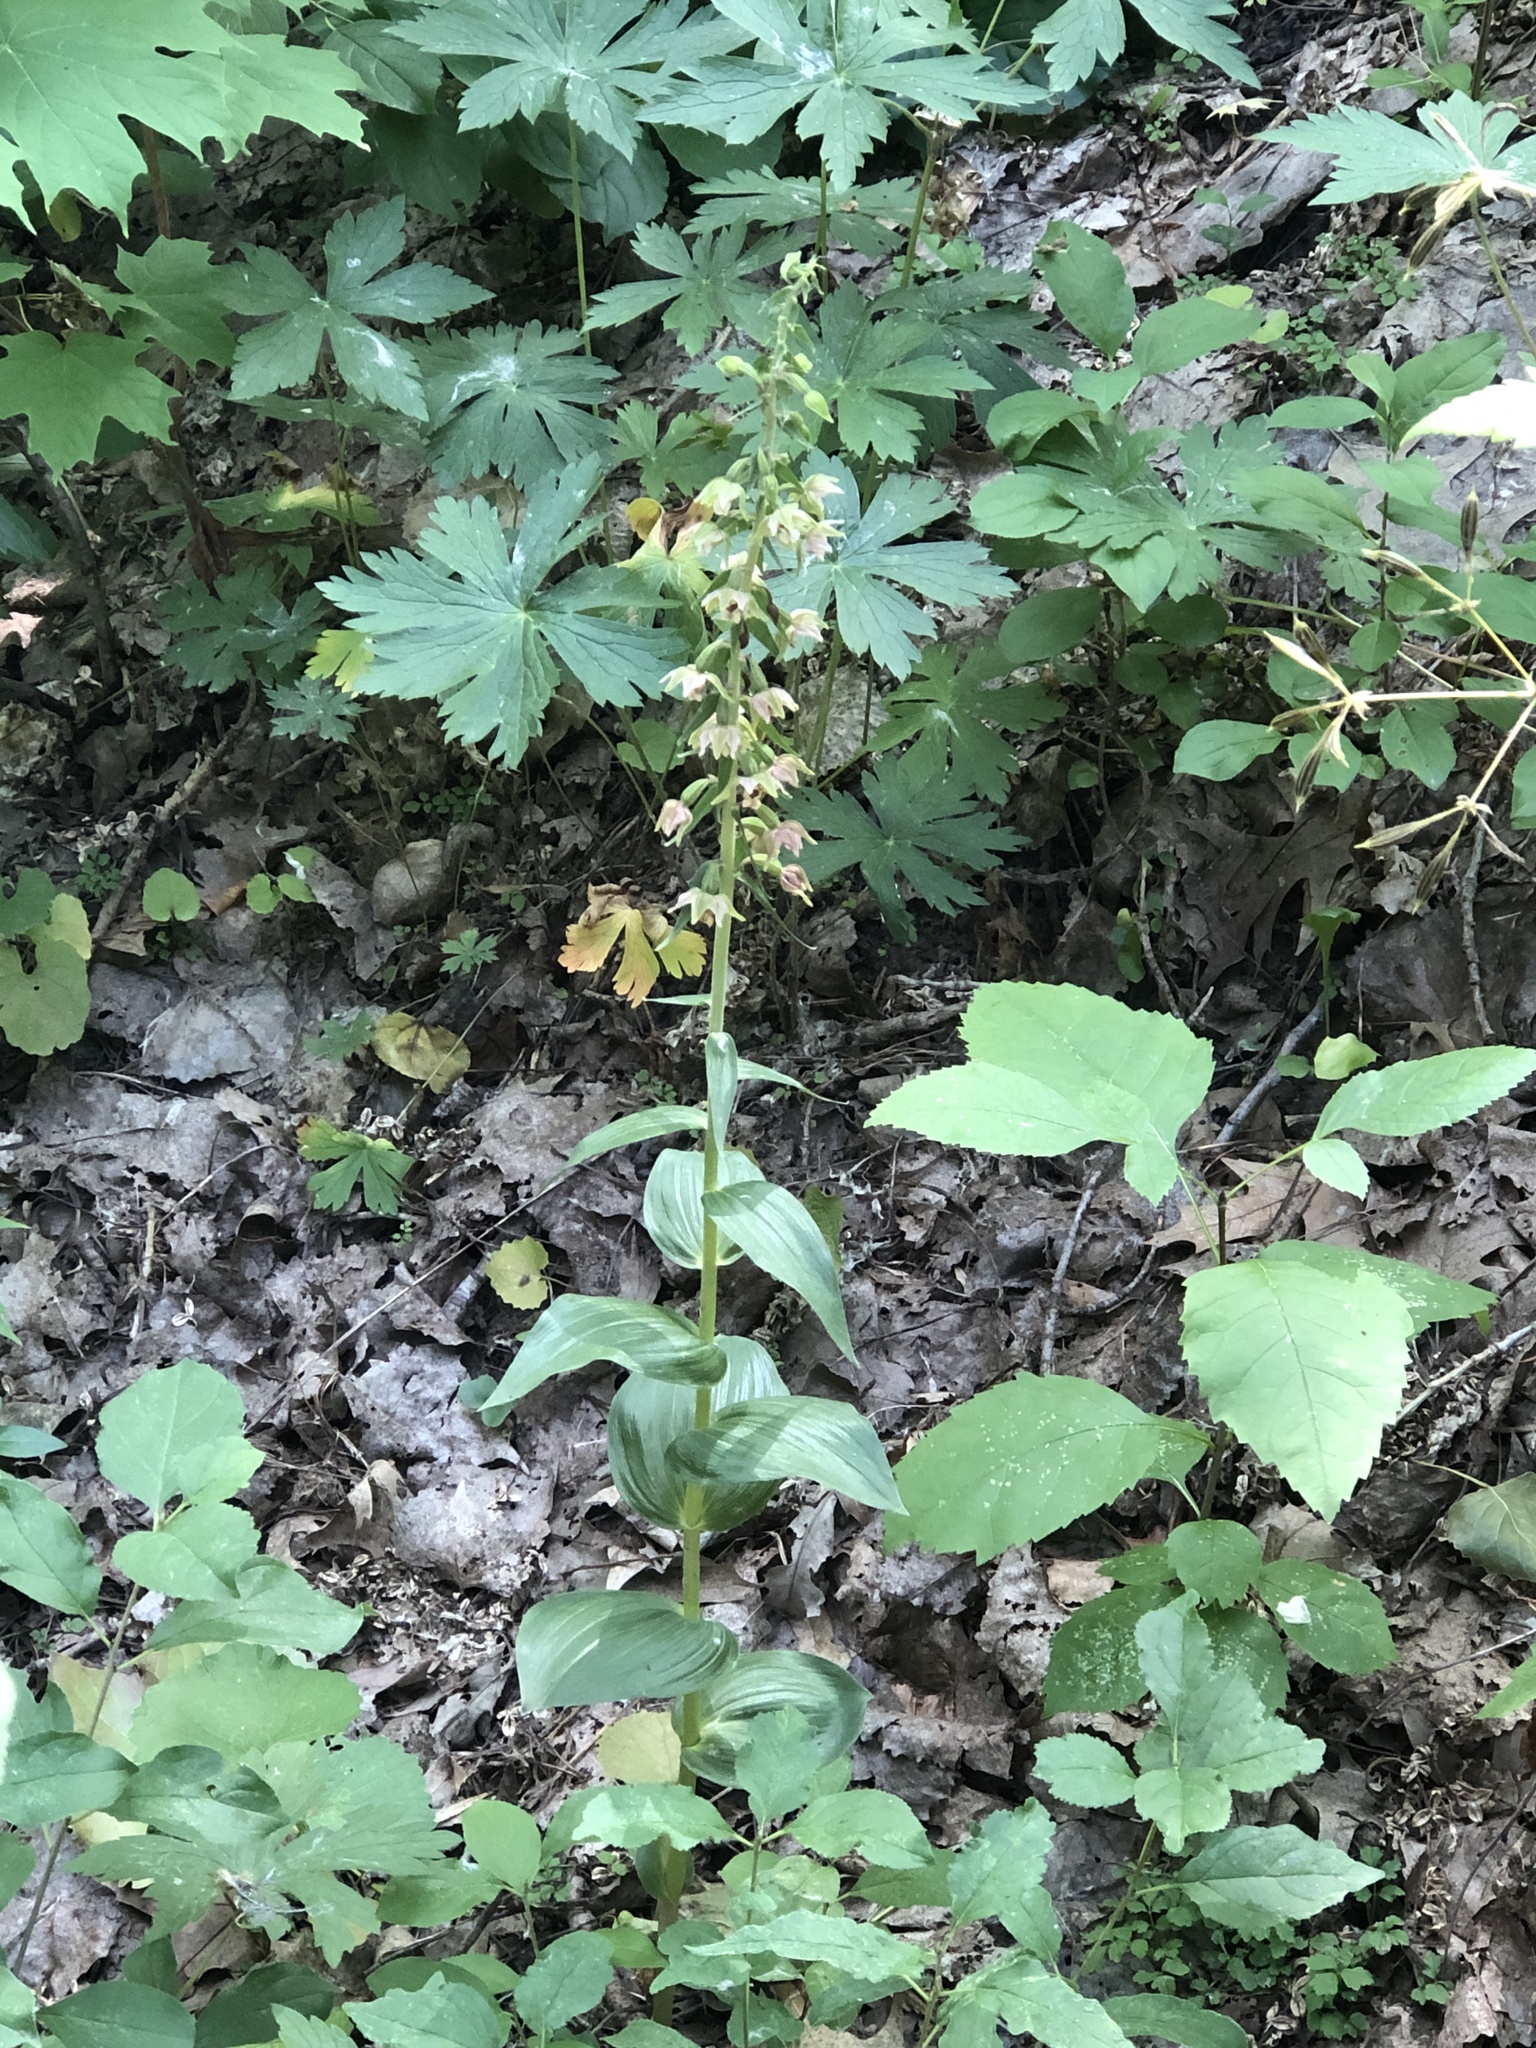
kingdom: Plantae
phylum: Tracheophyta
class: Liliopsida
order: Asparagales
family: Orchidaceae
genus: Epipactis
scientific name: Epipactis helleborine
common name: Broad-leaved helleborine
